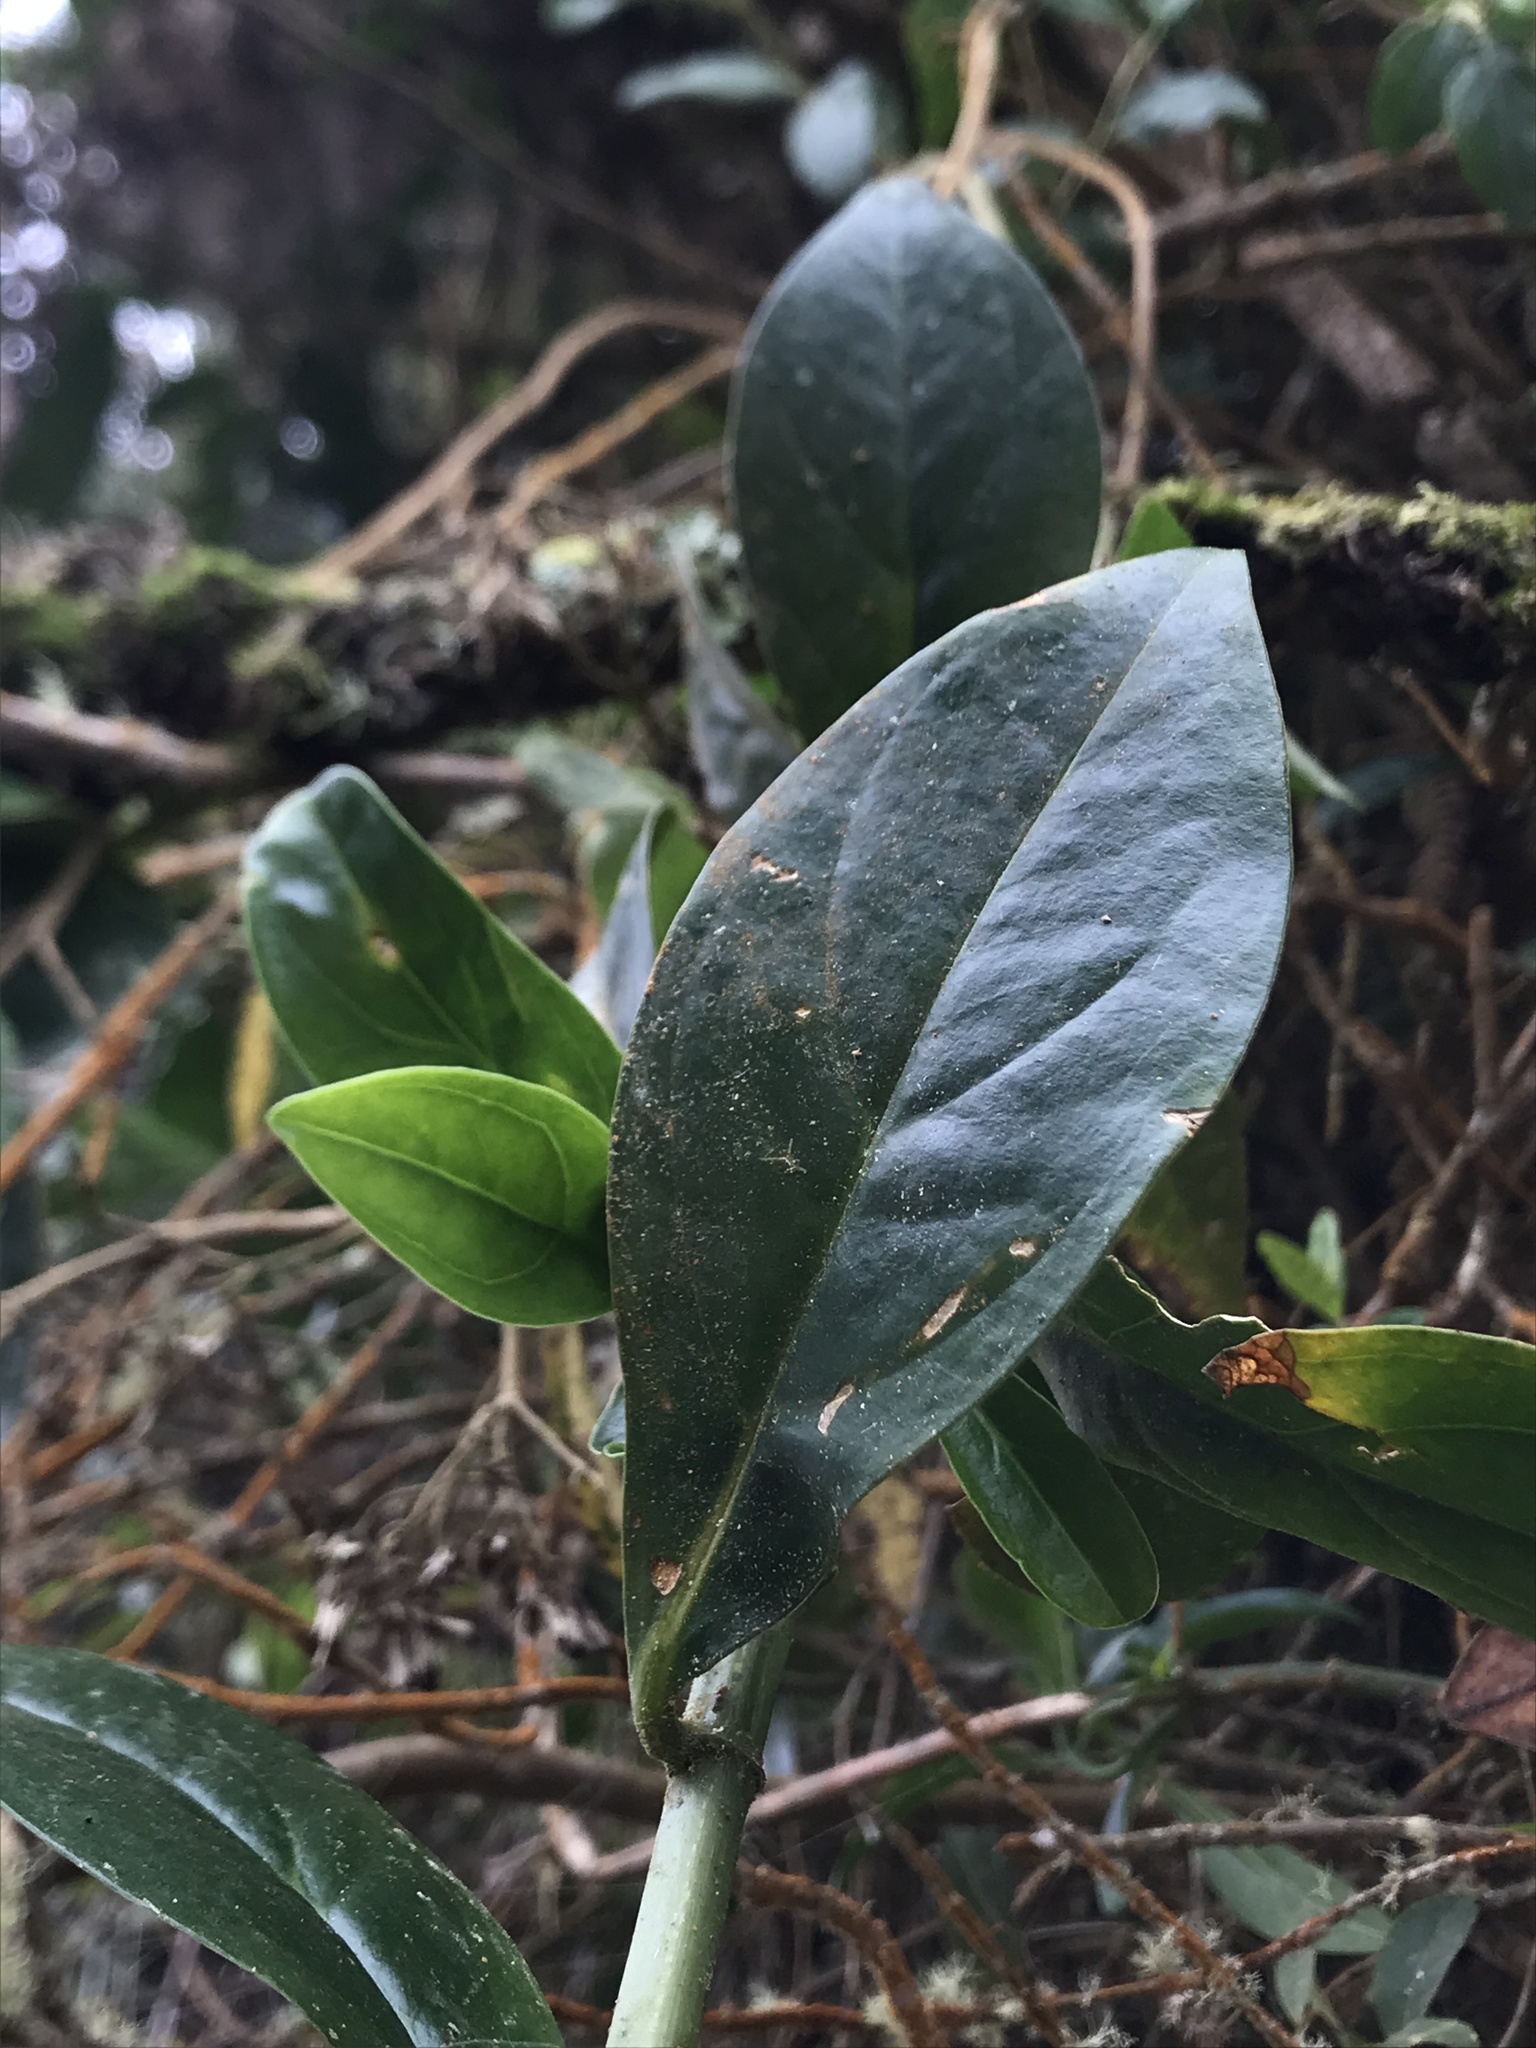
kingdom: Plantae
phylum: Tracheophyta
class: Magnoliopsida
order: Gentianales
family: Gentianaceae
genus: Symbolanthus
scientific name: Symbolanthus anomalus
